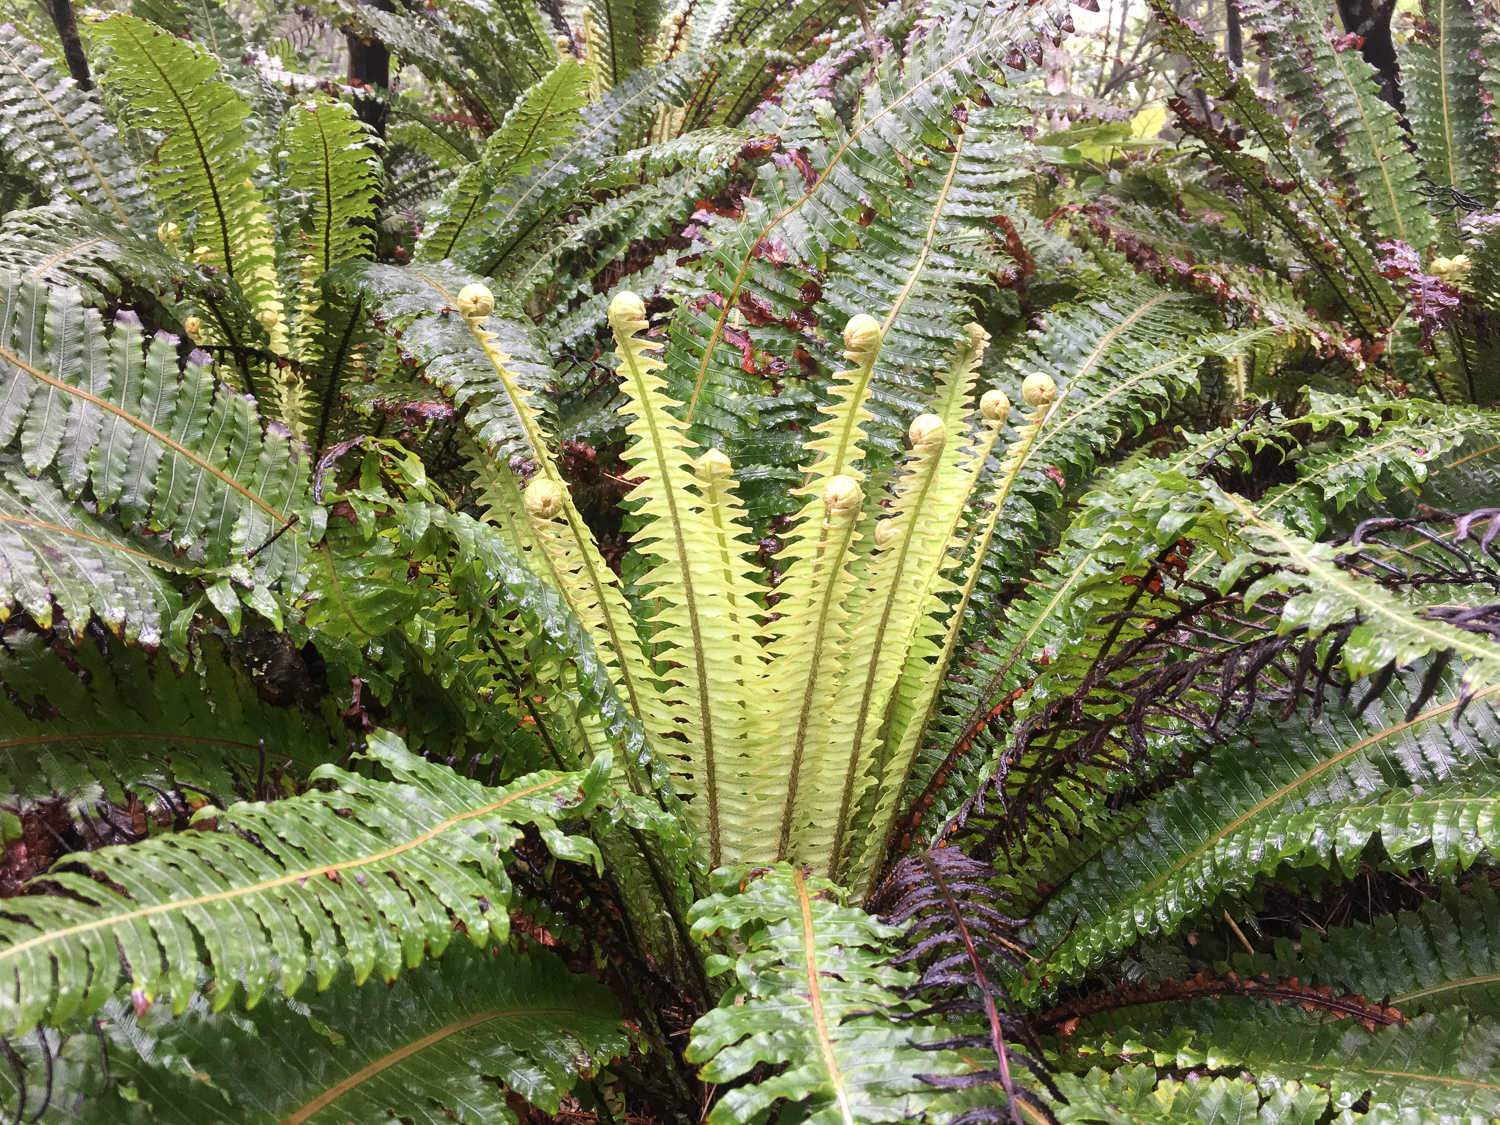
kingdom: Plantae
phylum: Tracheophyta
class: Polypodiopsida
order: Polypodiales
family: Blechnaceae
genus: Lomaria
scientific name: Lomaria discolor
